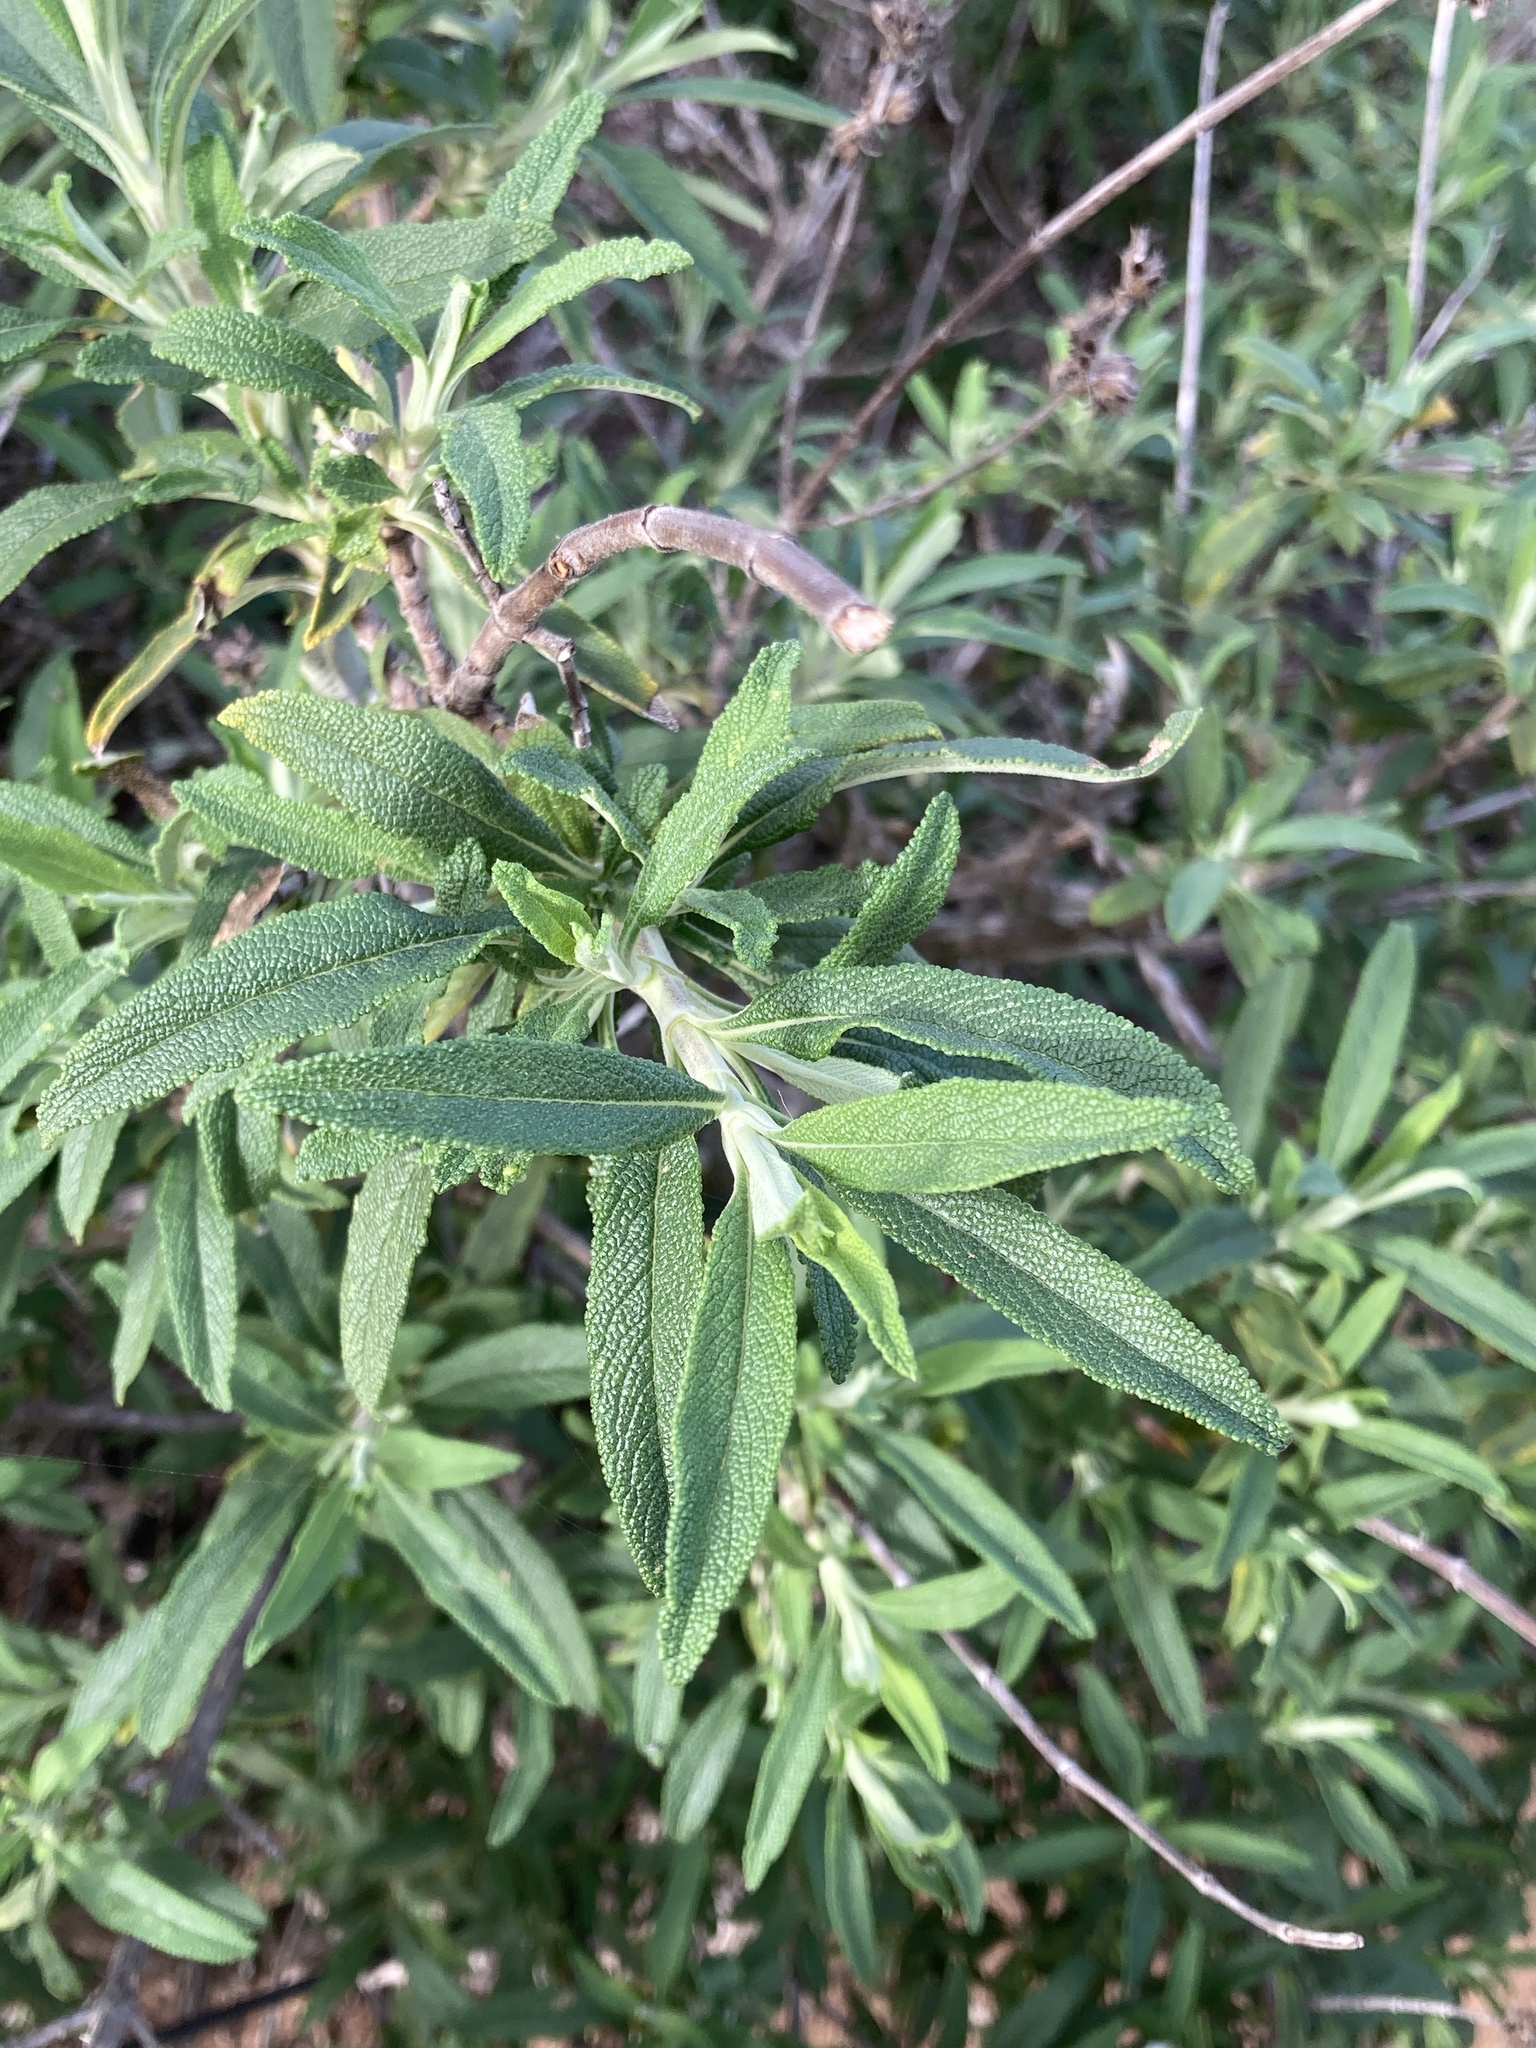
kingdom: Plantae
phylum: Tracheophyta
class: Magnoliopsida
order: Lamiales
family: Lamiaceae
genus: Salvia
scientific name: Salvia mellifera
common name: Black sage
